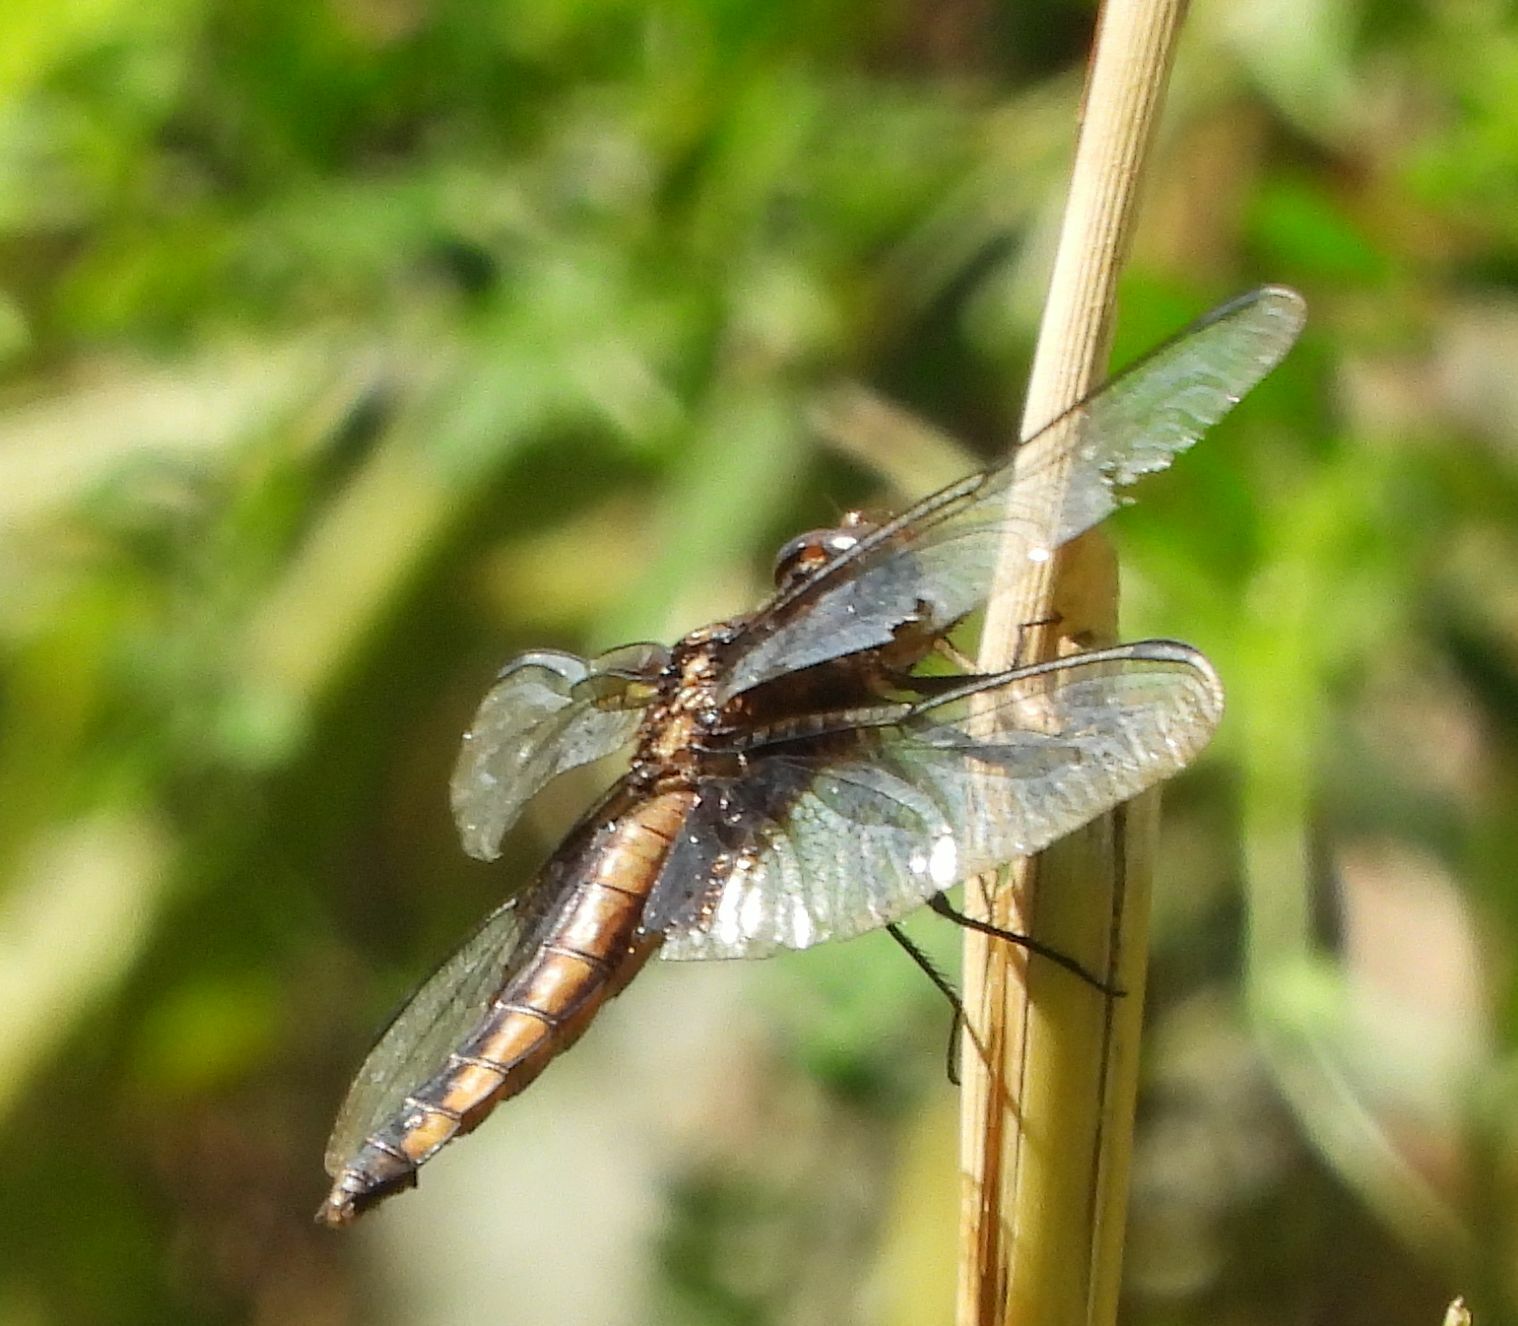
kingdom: Animalia
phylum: Arthropoda
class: Insecta
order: Odonata
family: Libellulidae
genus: Libellula
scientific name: Libellula luctuosa
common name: Widow skimmer
